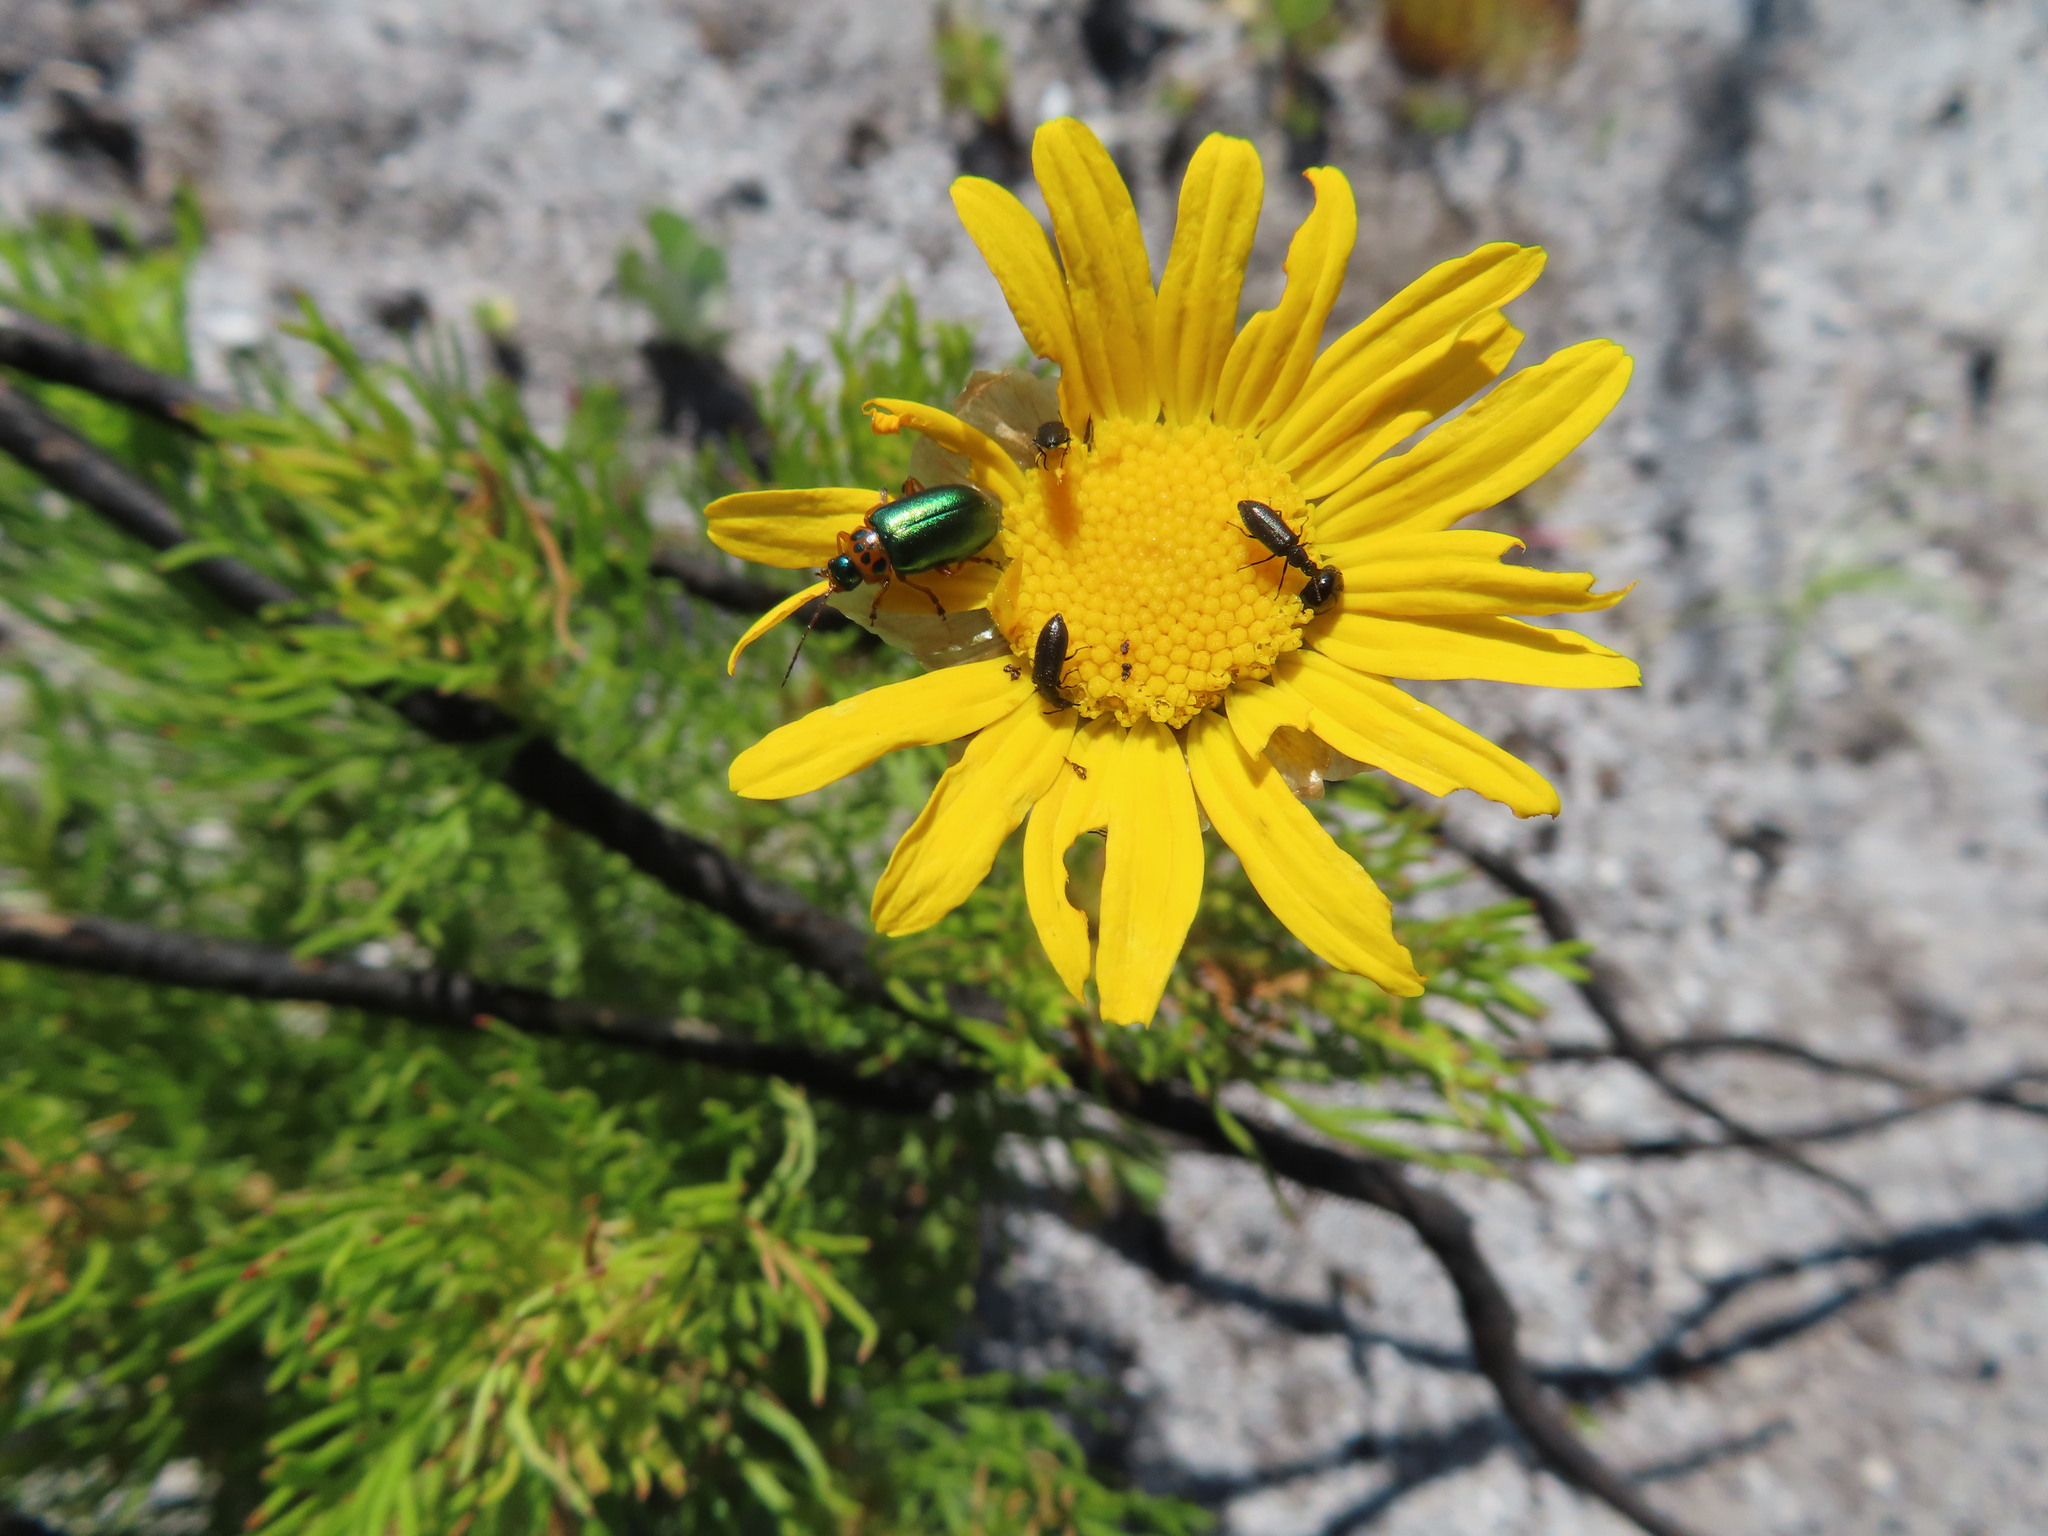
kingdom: Animalia
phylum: Arthropoda
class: Insecta
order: Coleoptera
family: Chrysomelidae
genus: Palaeophylia
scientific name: Palaeophylia
